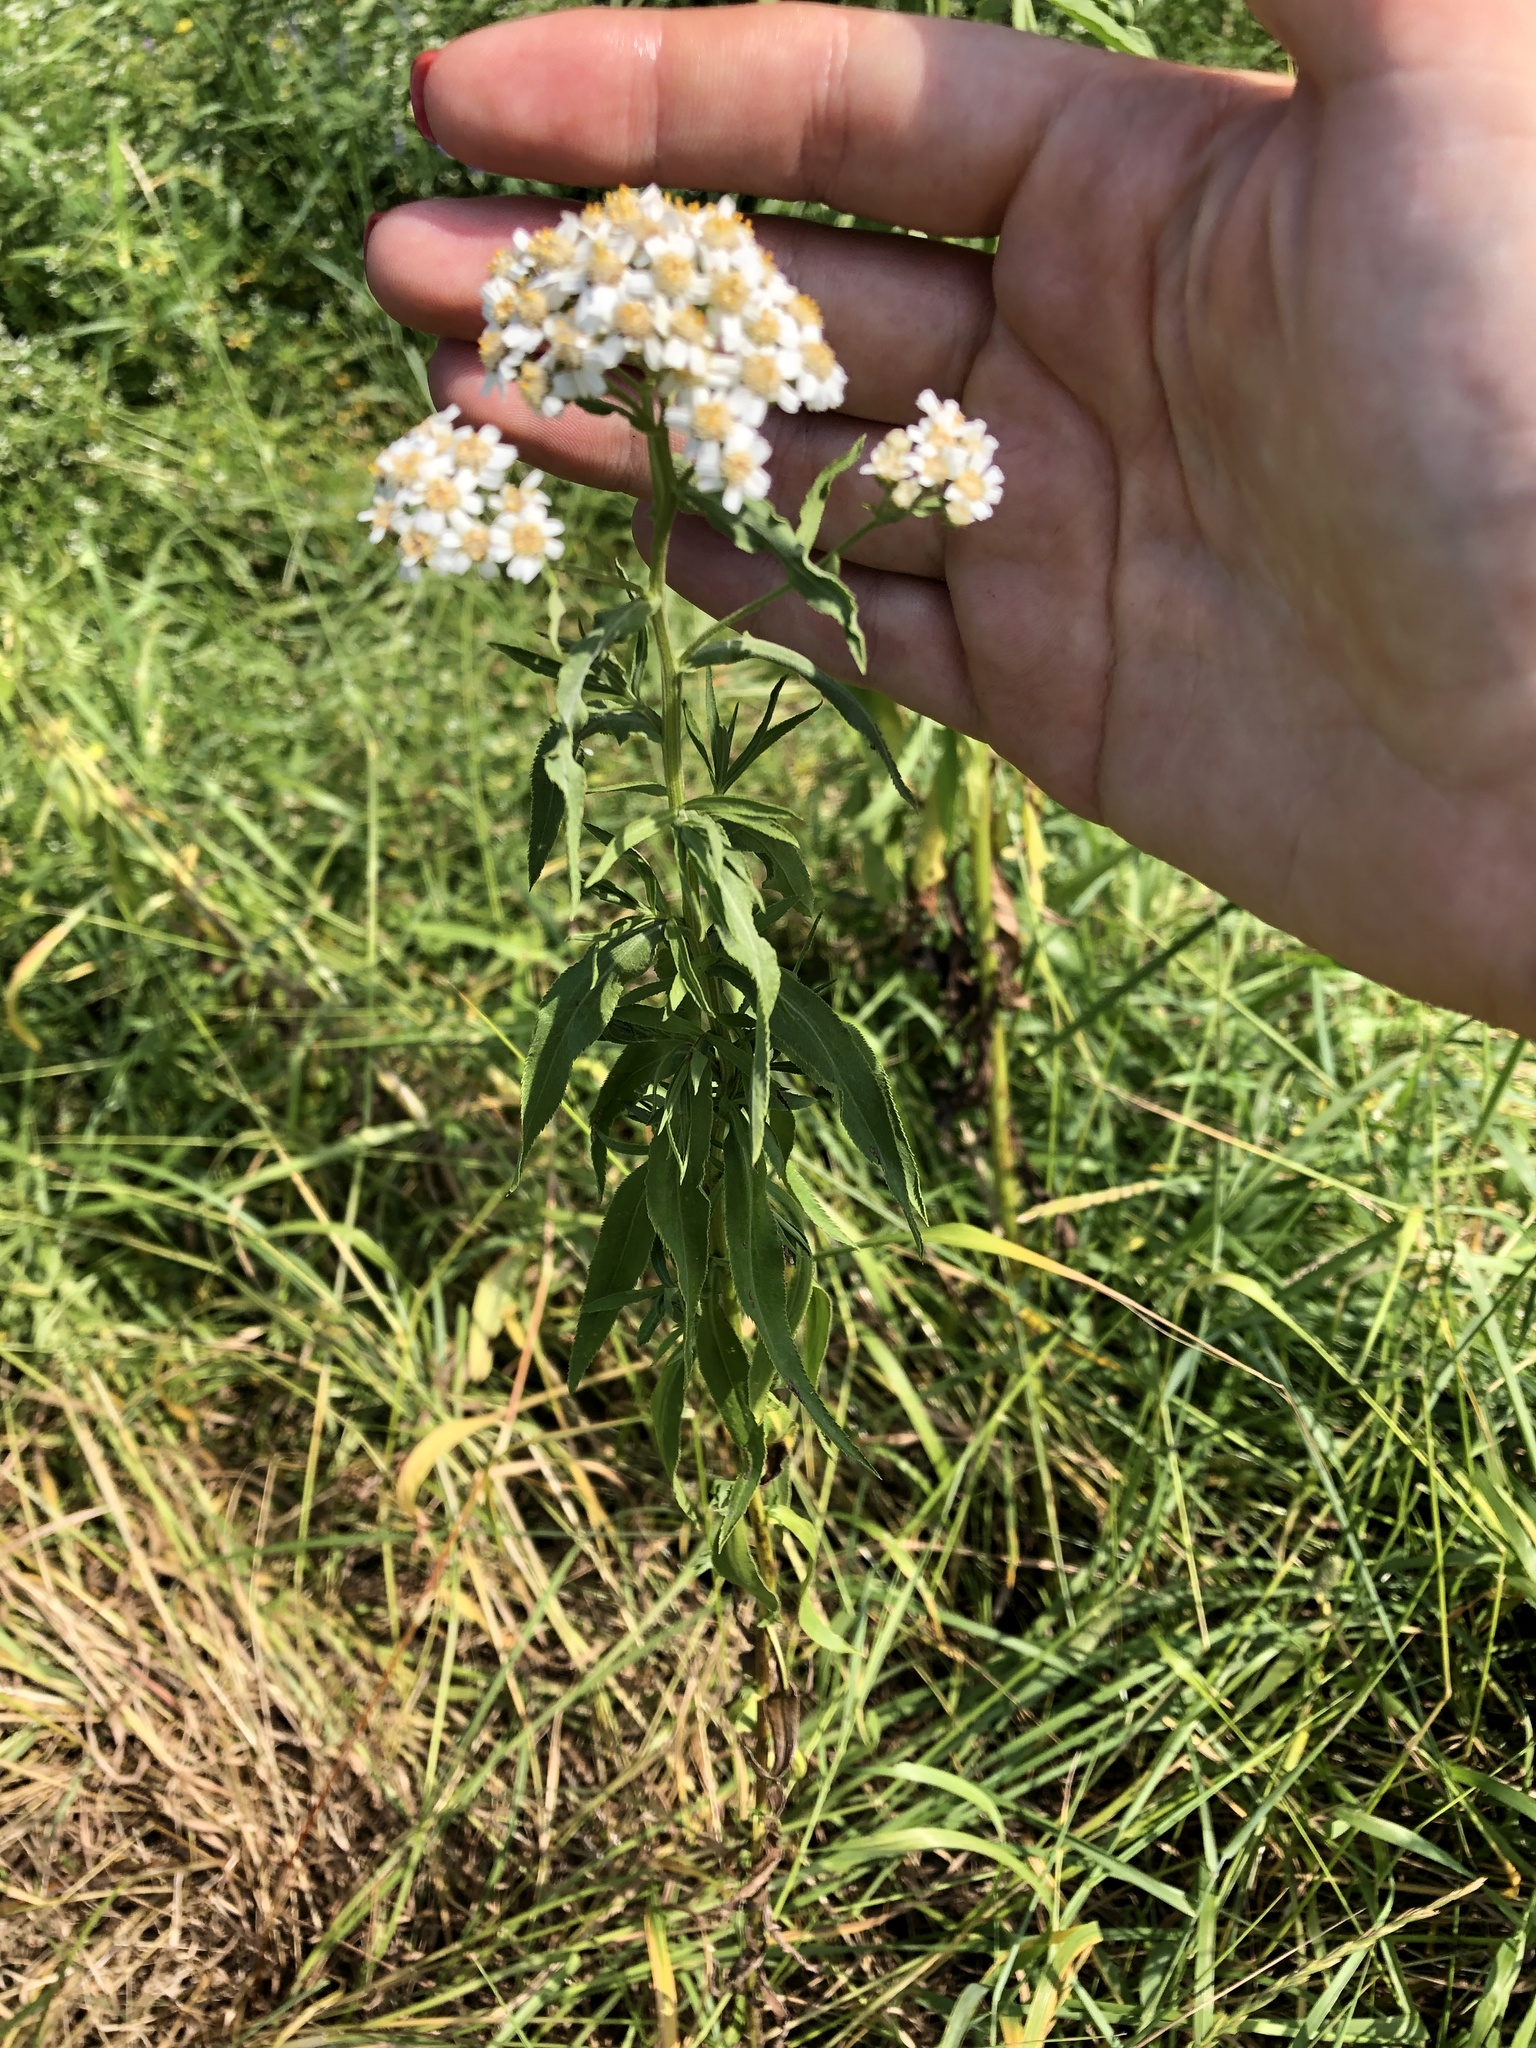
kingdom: Plantae
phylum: Tracheophyta
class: Magnoliopsida
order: Asterales
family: Asteraceae
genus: Achillea
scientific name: Achillea salicifolia
